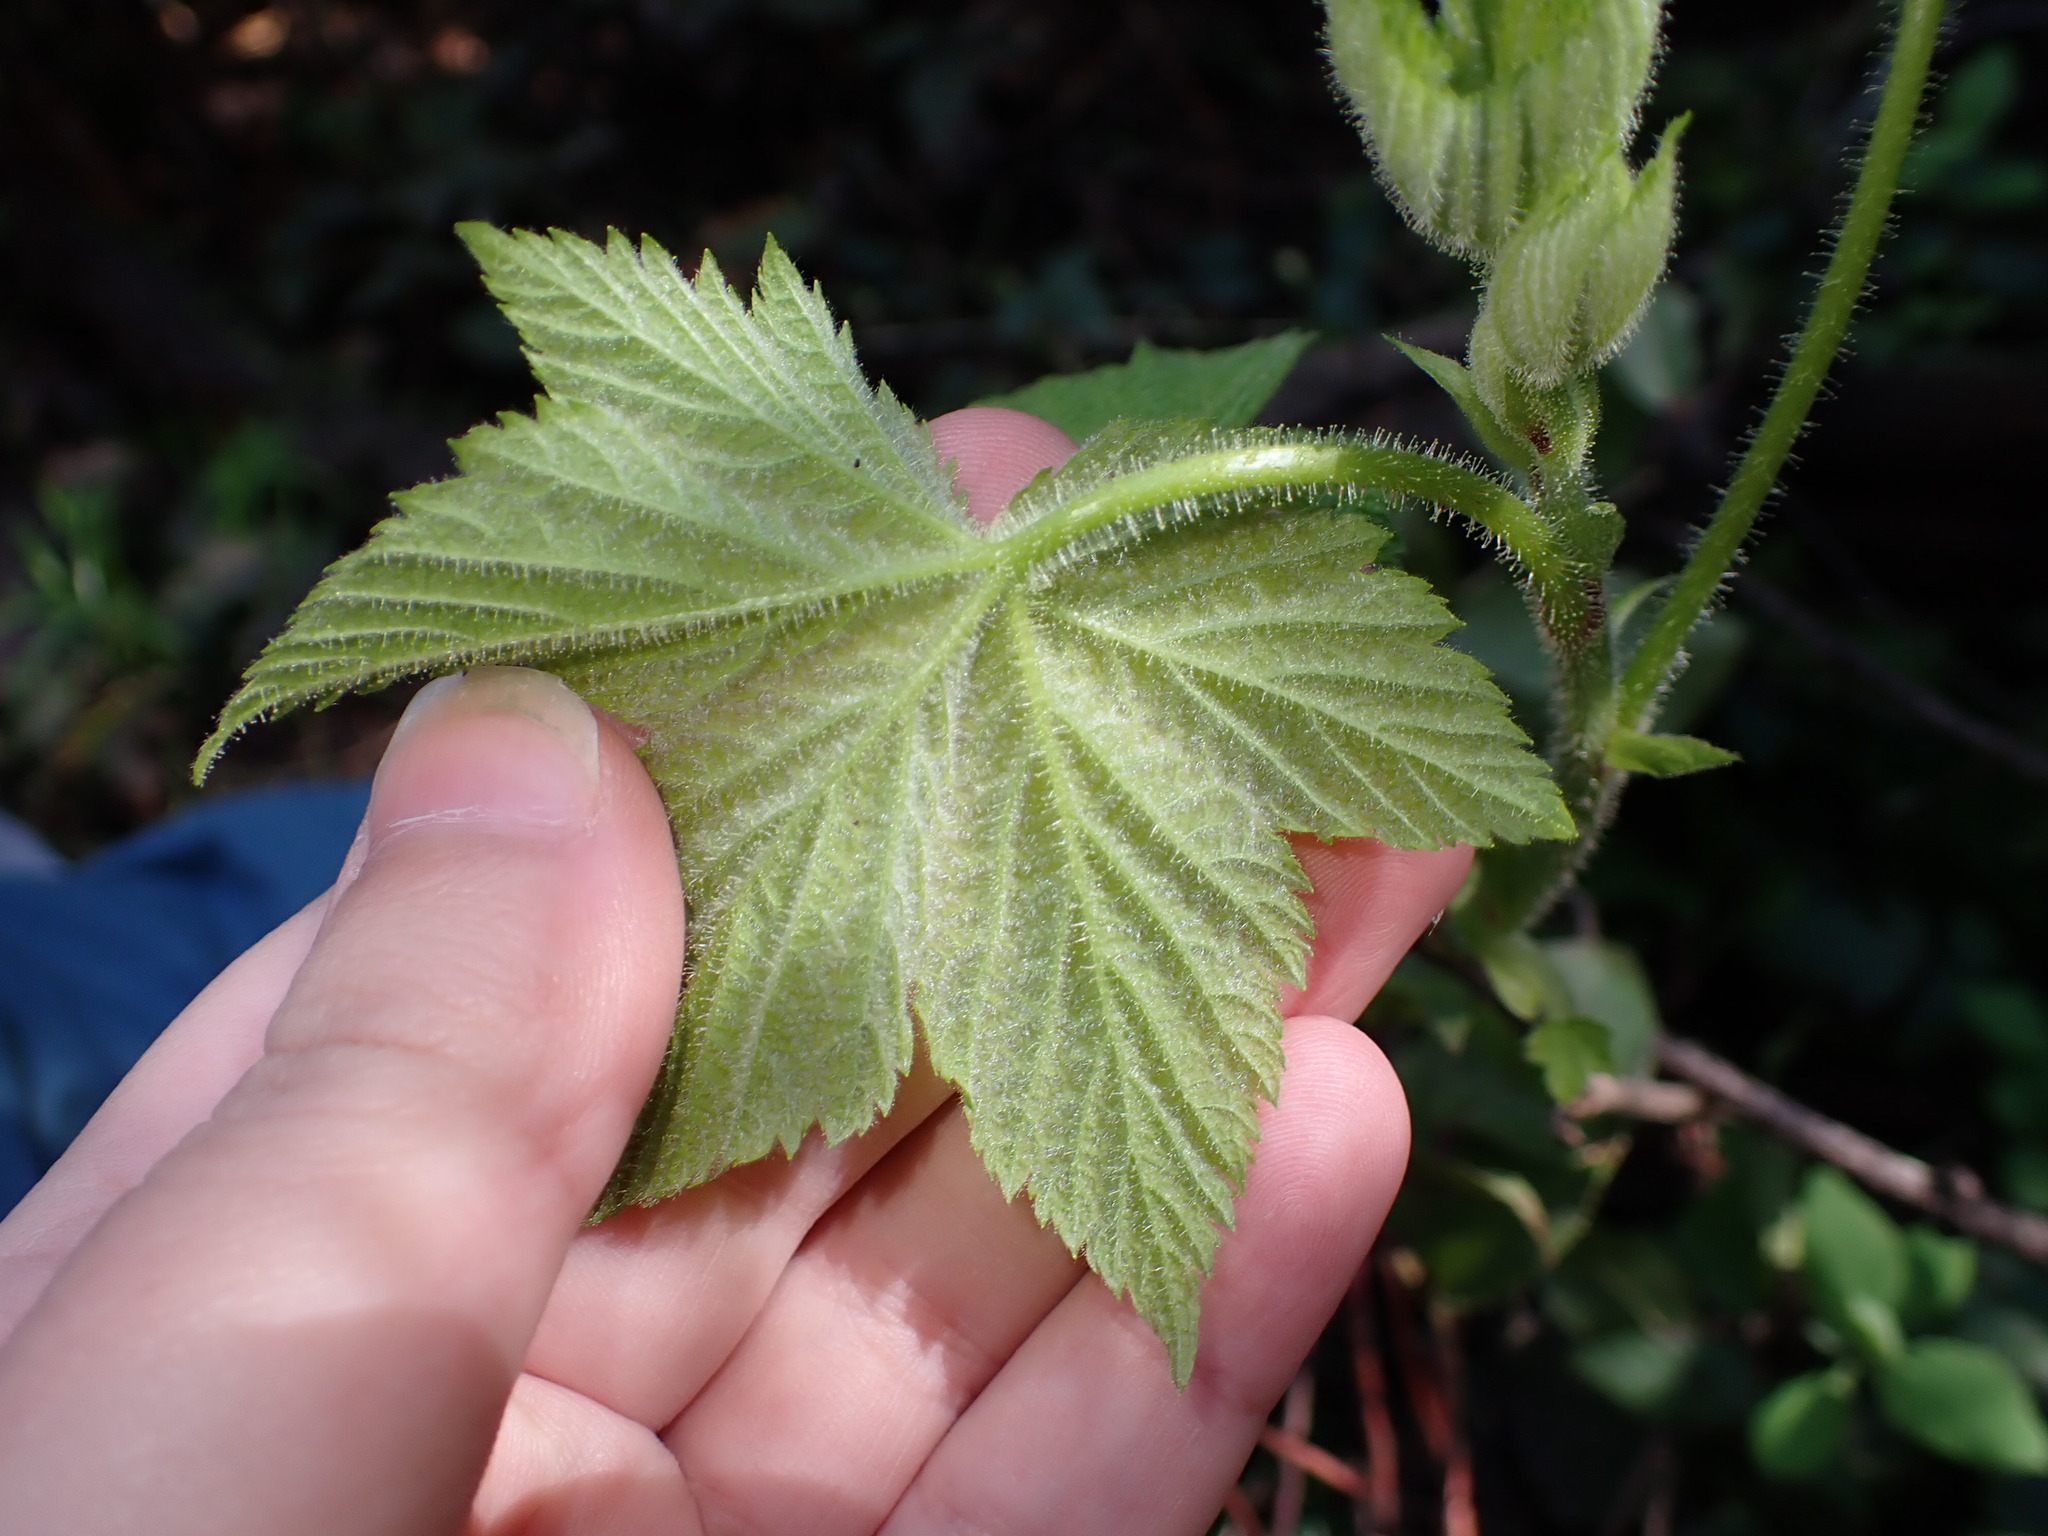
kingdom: Plantae
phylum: Tracheophyta
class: Magnoliopsida
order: Rosales
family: Rosaceae
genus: Rubus
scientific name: Rubus parviflorus
